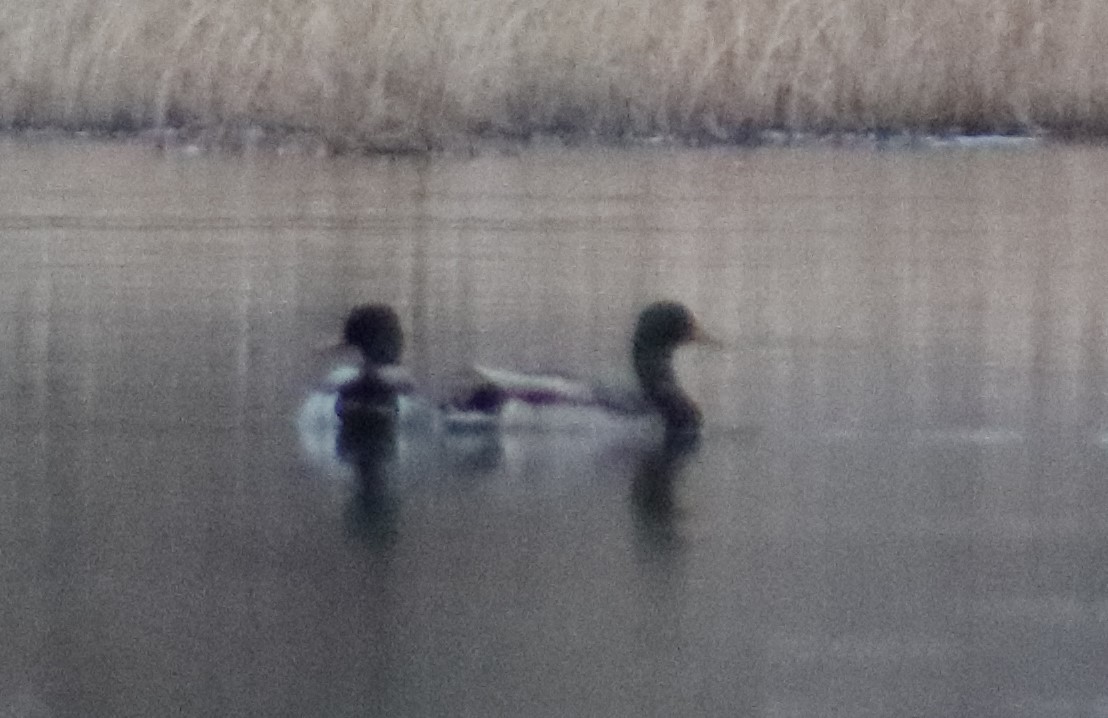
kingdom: Animalia
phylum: Chordata
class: Aves
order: Anseriformes
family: Anatidae
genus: Anas
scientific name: Anas platyrhynchos
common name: Mallard
